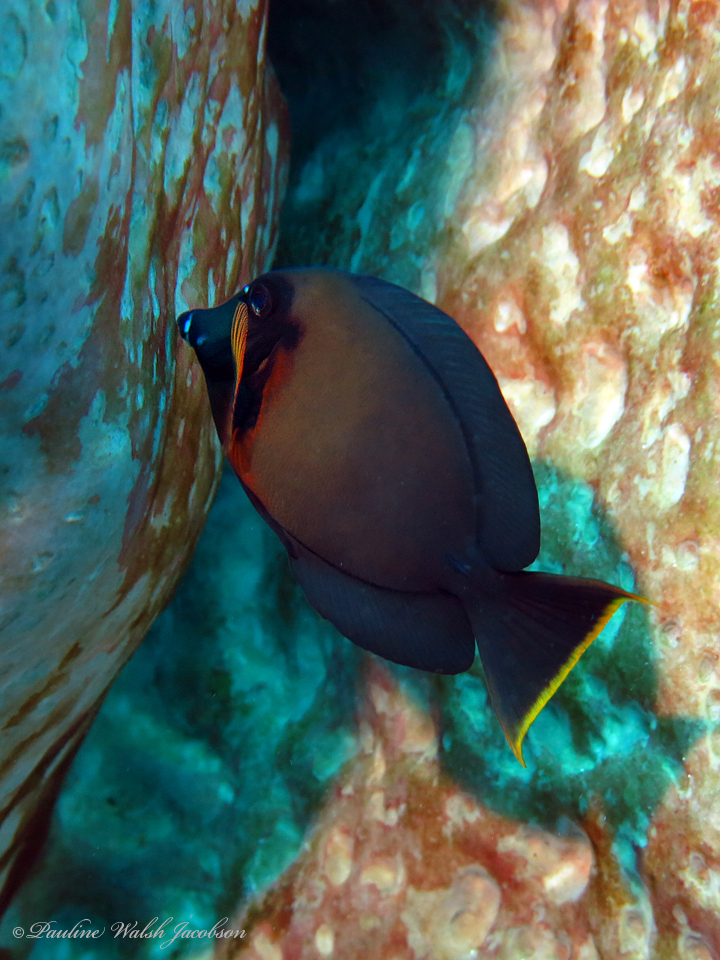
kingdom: Animalia
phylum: Chordata
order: Perciformes
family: Acanthuridae
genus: Acanthurus
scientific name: Acanthurus pyroferus
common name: Chocolate surgeonfish
